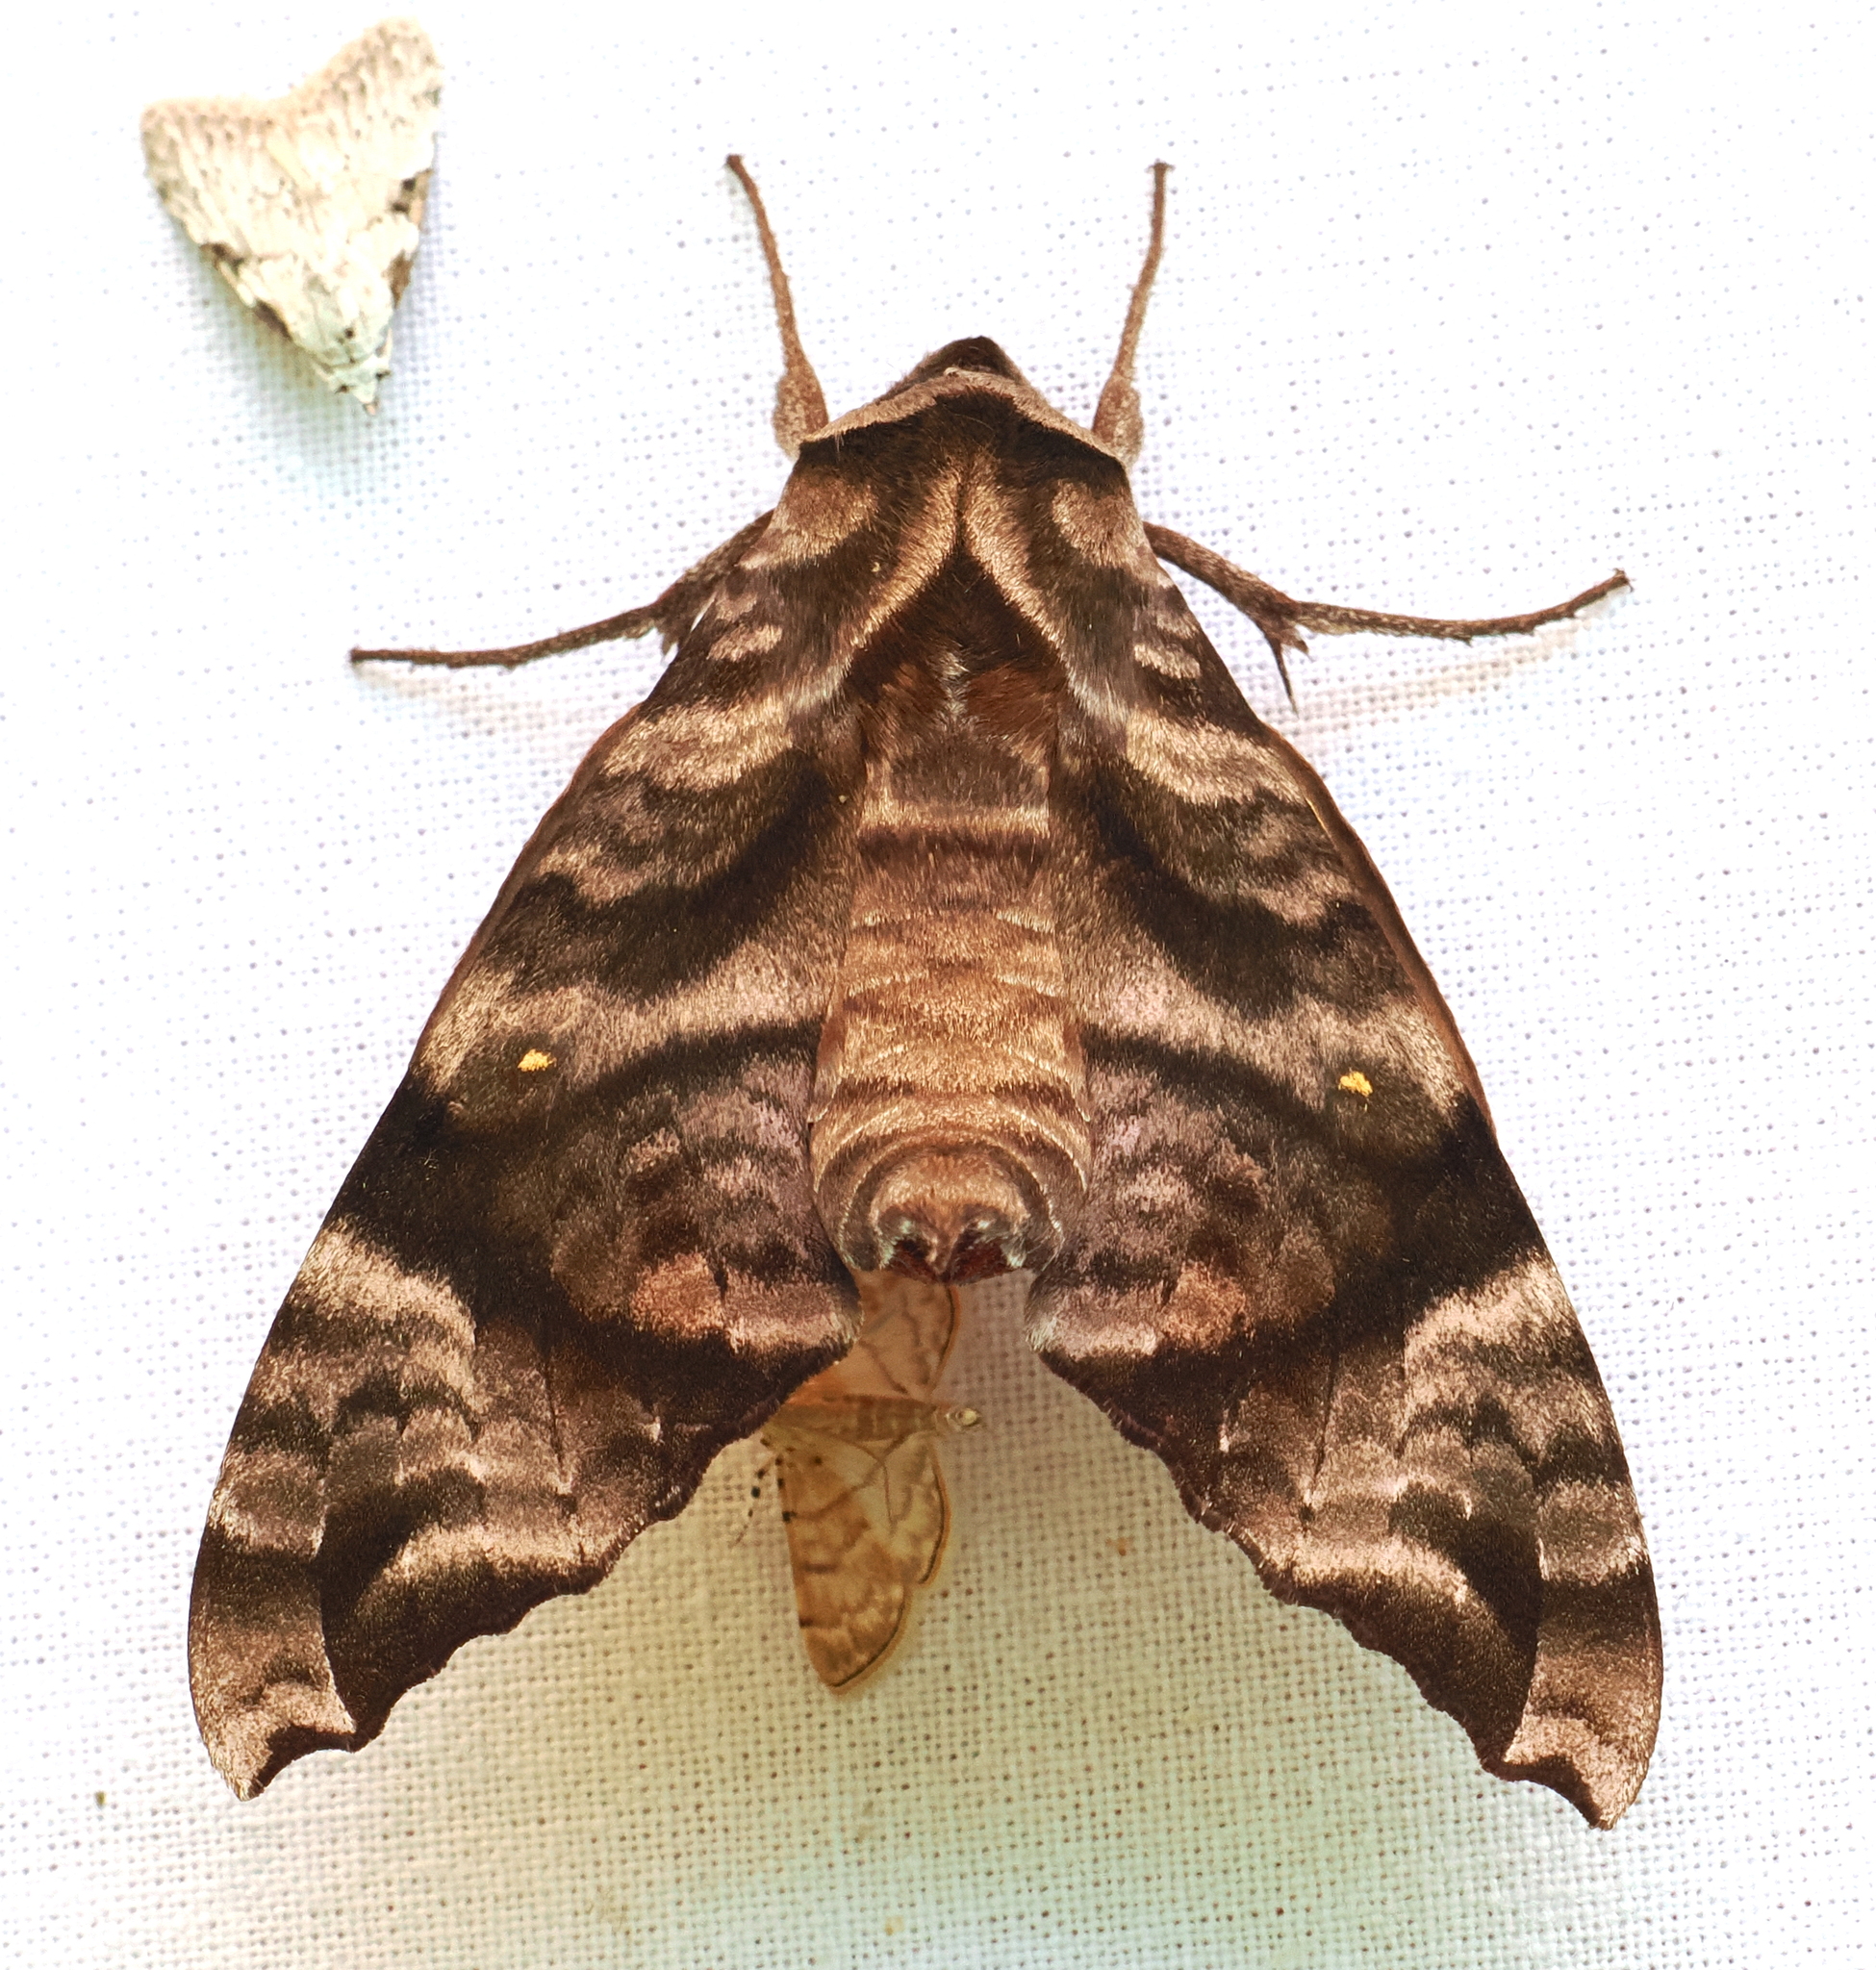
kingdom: Animalia
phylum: Arthropoda
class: Insecta
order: Lepidoptera
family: Sphingidae
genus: Acosmeryx
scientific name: Acosmeryx anceus
